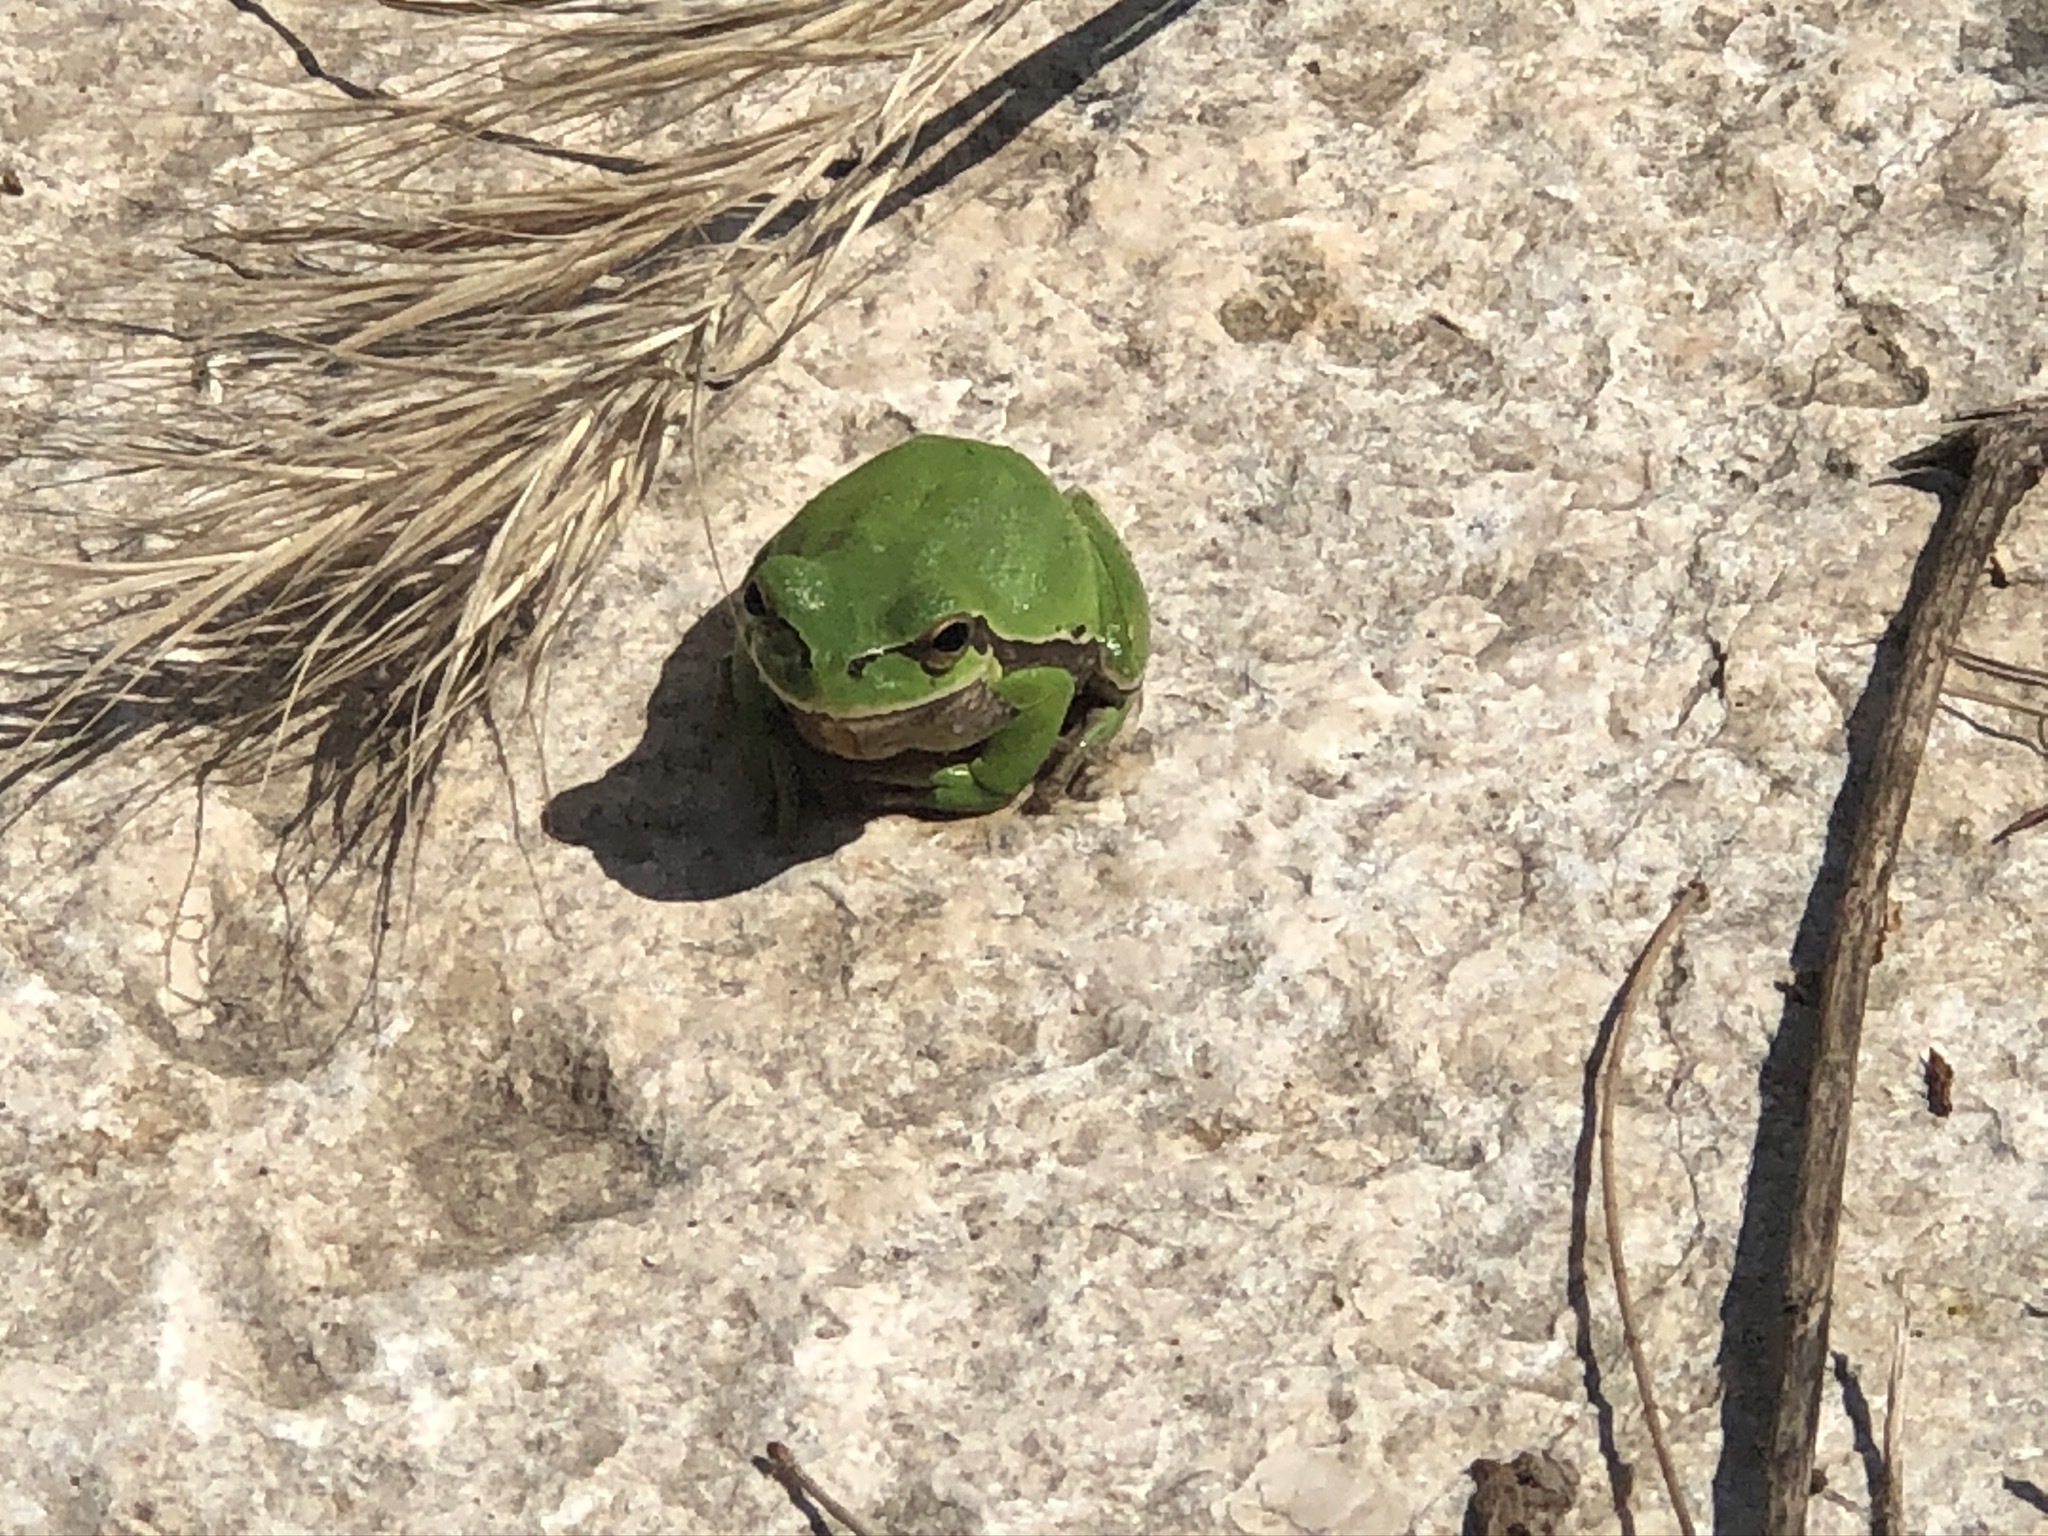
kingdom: Animalia
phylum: Chordata
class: Amphibia
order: Anura
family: Hylidae
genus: Hyla
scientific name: Hyla savignyi
